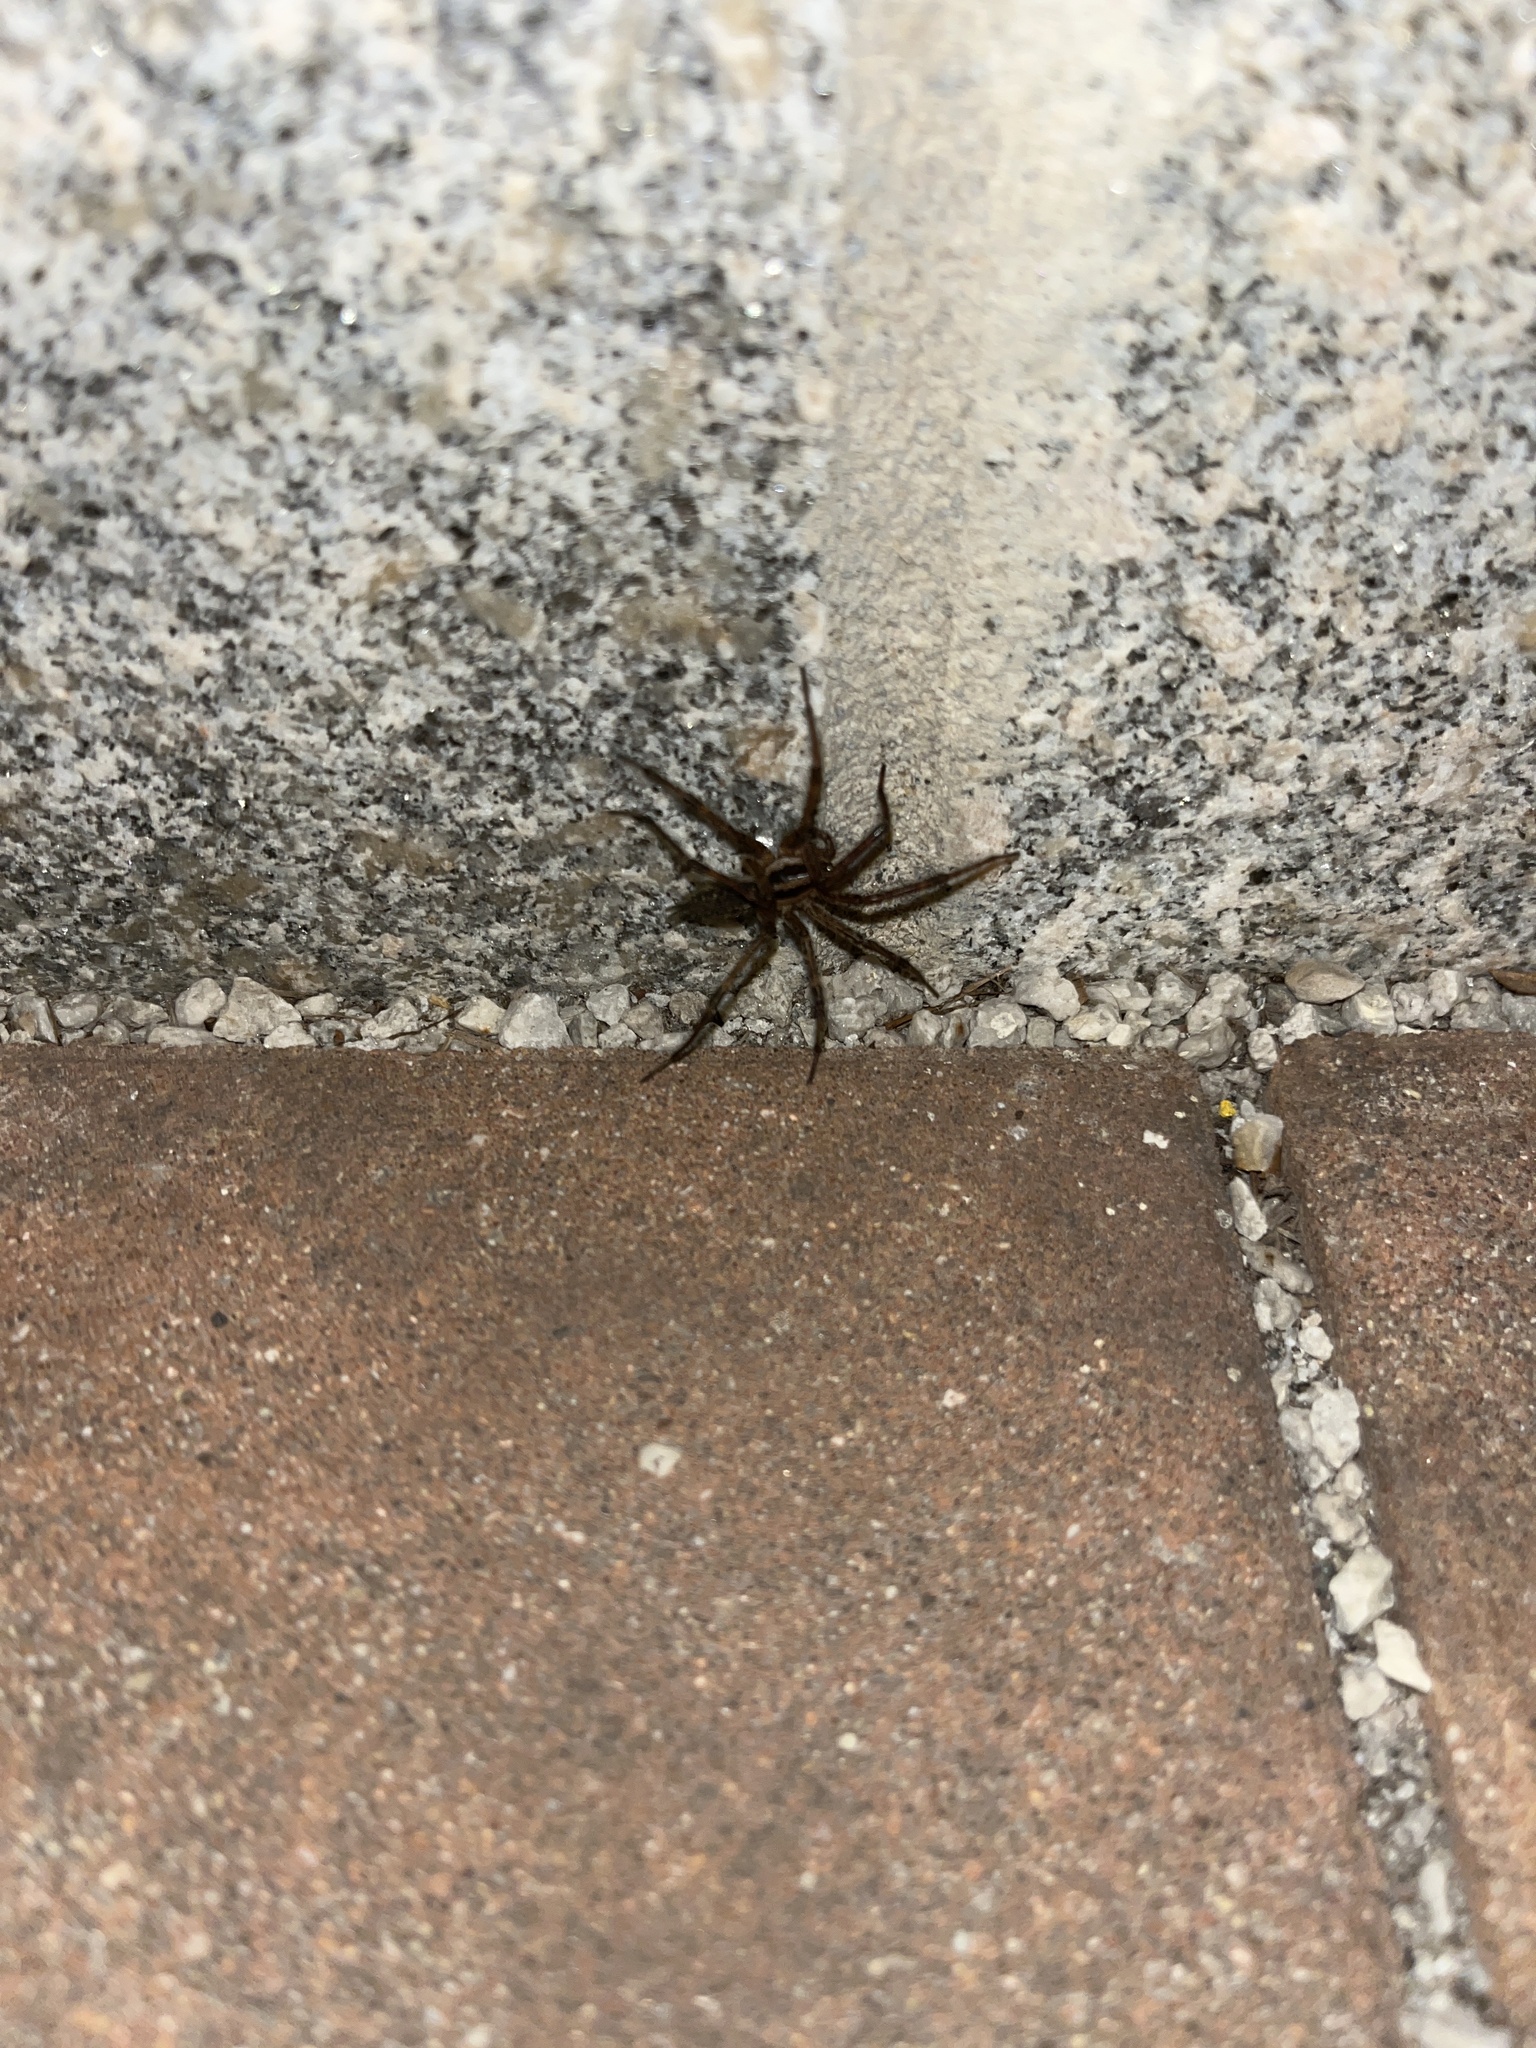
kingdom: Animalia
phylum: Arthropoda
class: Arachnida
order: Araneae
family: Agelenidae
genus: Agelenopsis
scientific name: Agelenopsis
